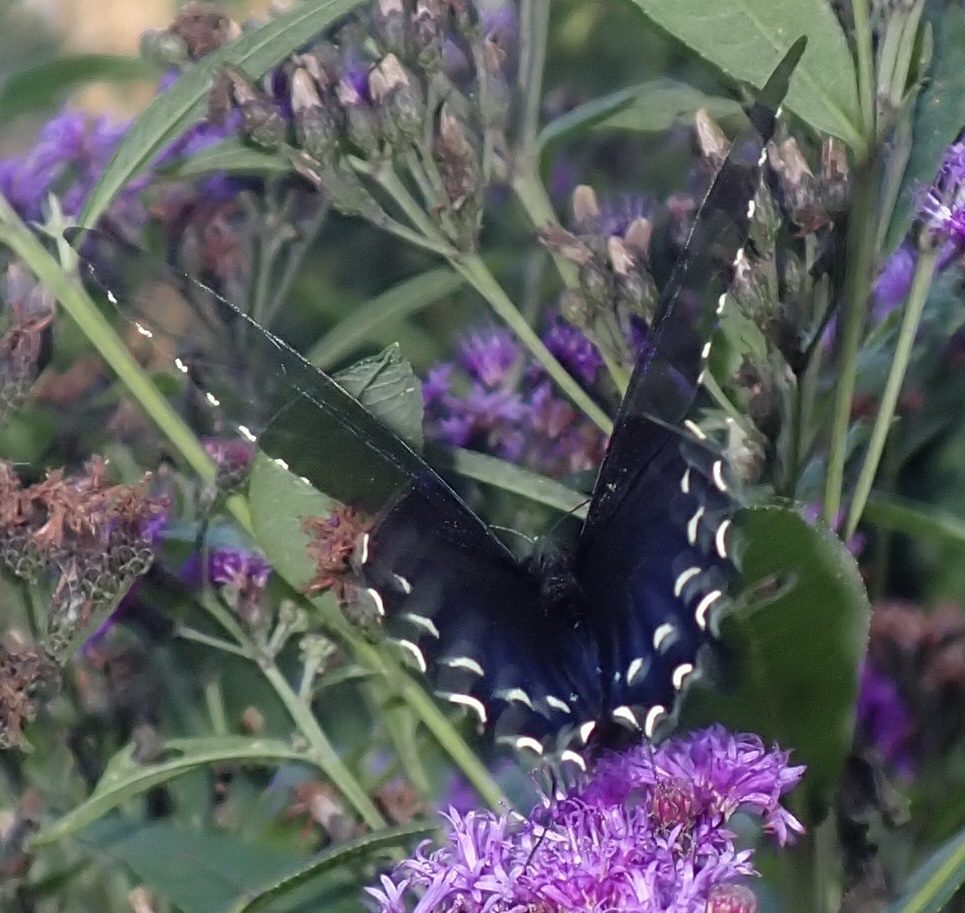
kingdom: Animalia
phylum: Arthropoda
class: Insecta
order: Lepidoptera
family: Papilionidae
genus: Battus
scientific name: Battus philenor
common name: Pipevine swallowtail
